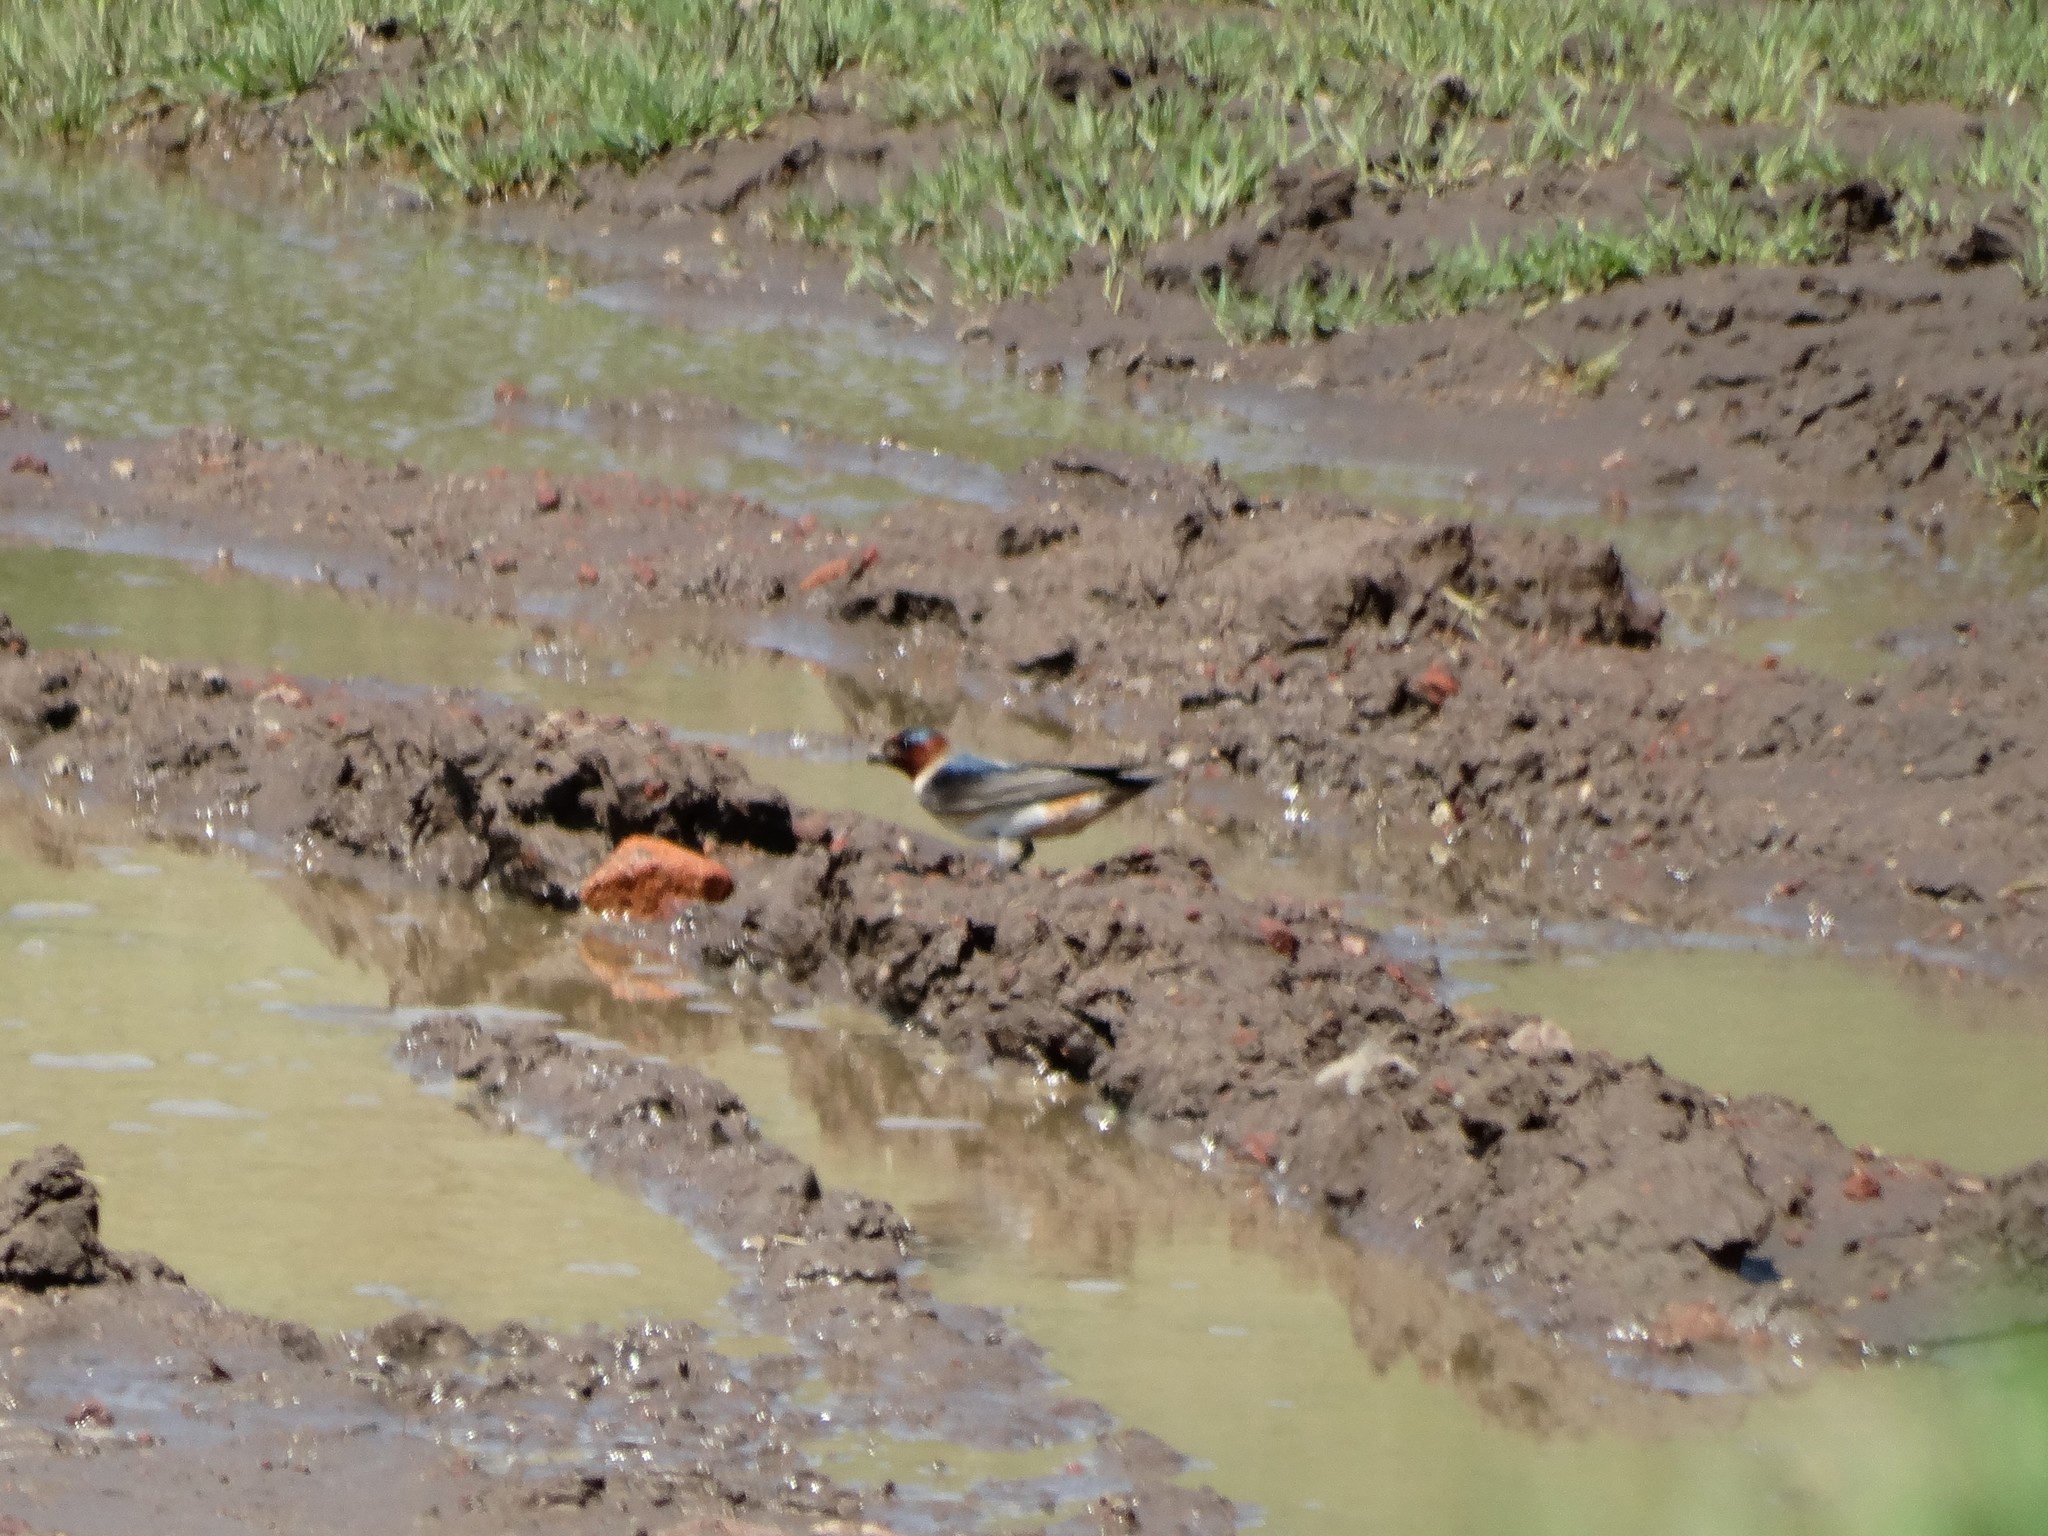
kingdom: Animalia
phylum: Chordata
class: Aves
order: Passeriformes
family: Hirundinidae
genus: Petrochelidon
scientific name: Petrochelidon pyrrhonota
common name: American cliff swallow
